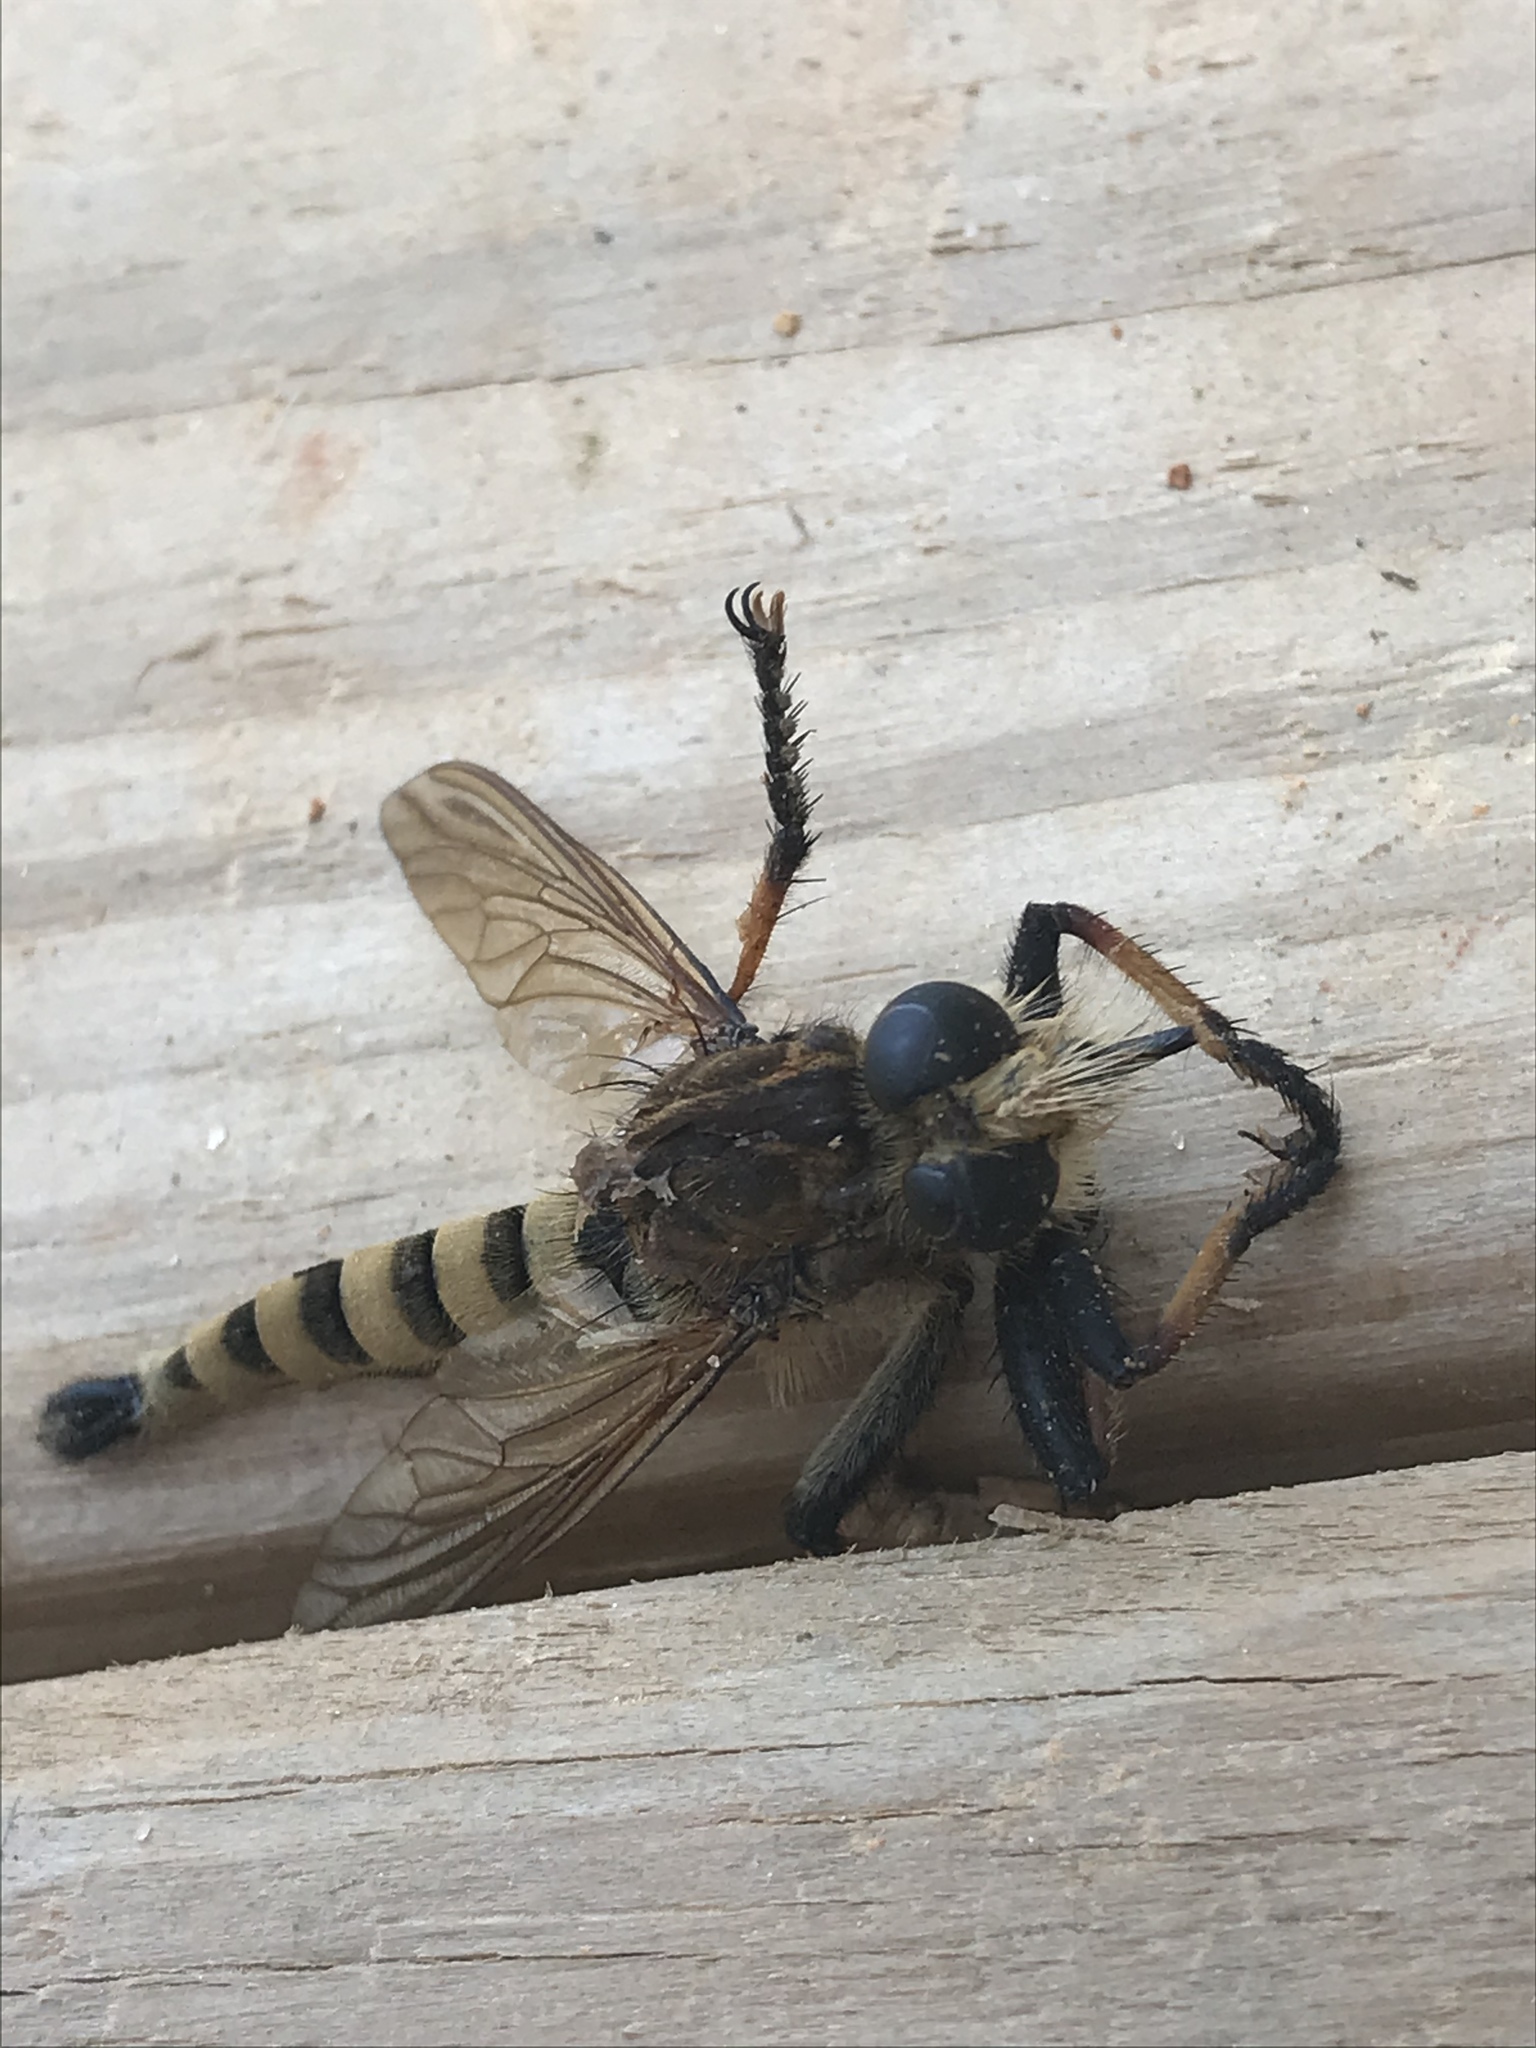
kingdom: Animalia
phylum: Arthropoda
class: Insecta
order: Diptera
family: Asilidae
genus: Promachus
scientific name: Promachus rufipes
